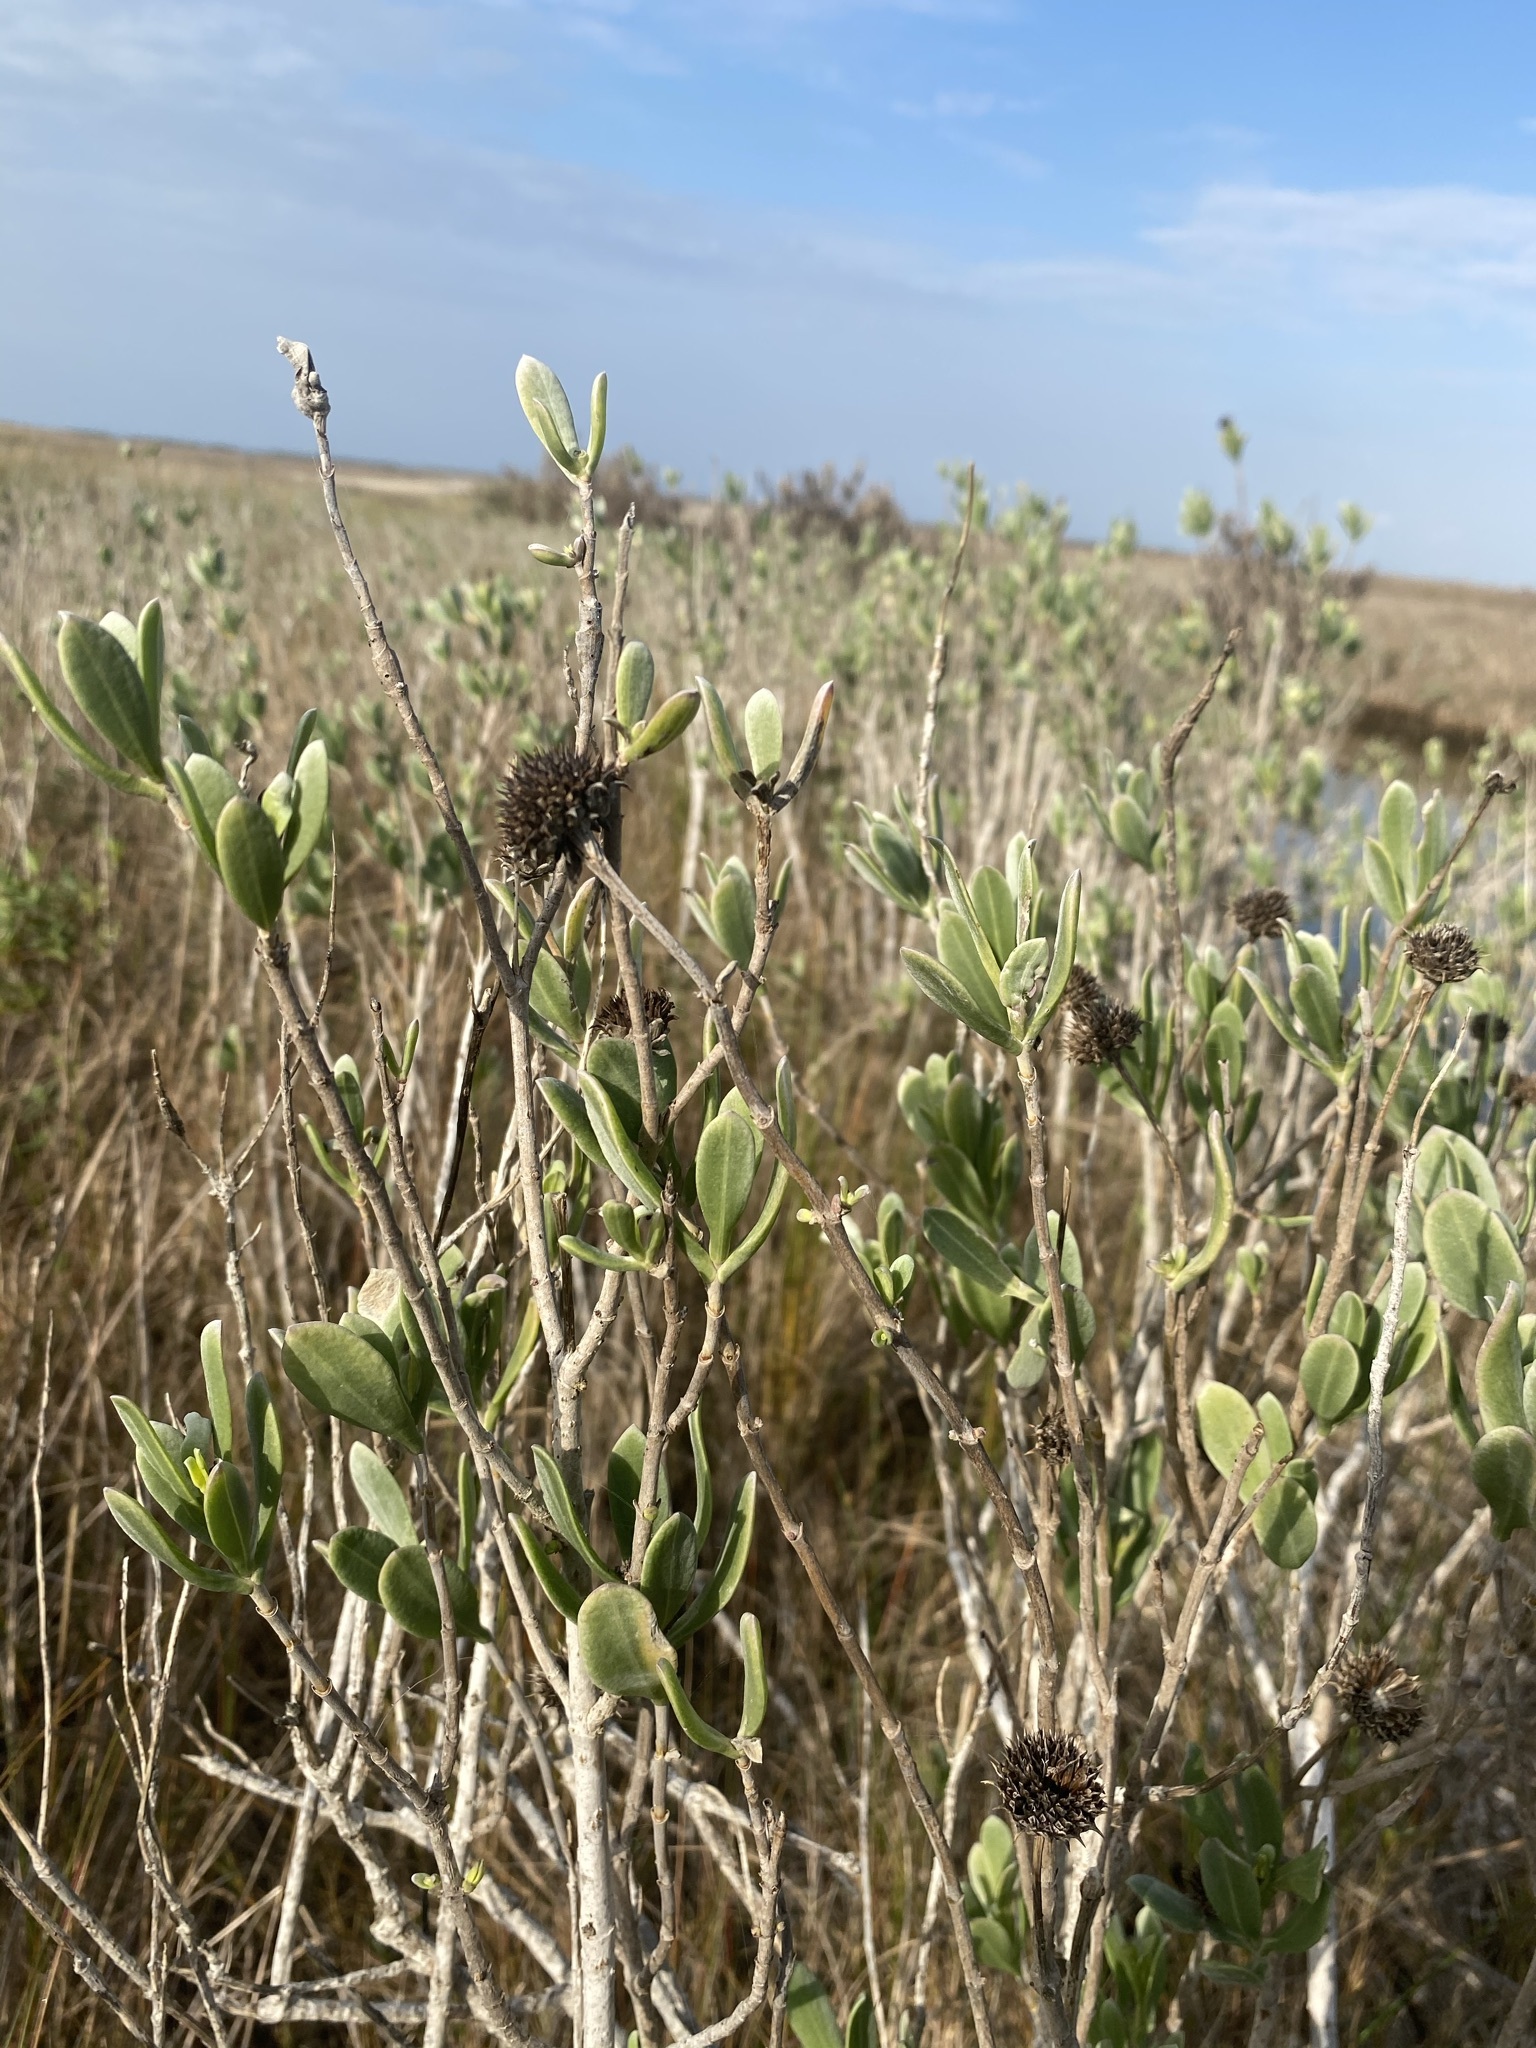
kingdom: Plantae
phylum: Tracheophyta
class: Magnoliopsida
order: Asterales
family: Asteraceae
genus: Borrichia
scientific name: Borrichia frutescens
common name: Sea oxeye
